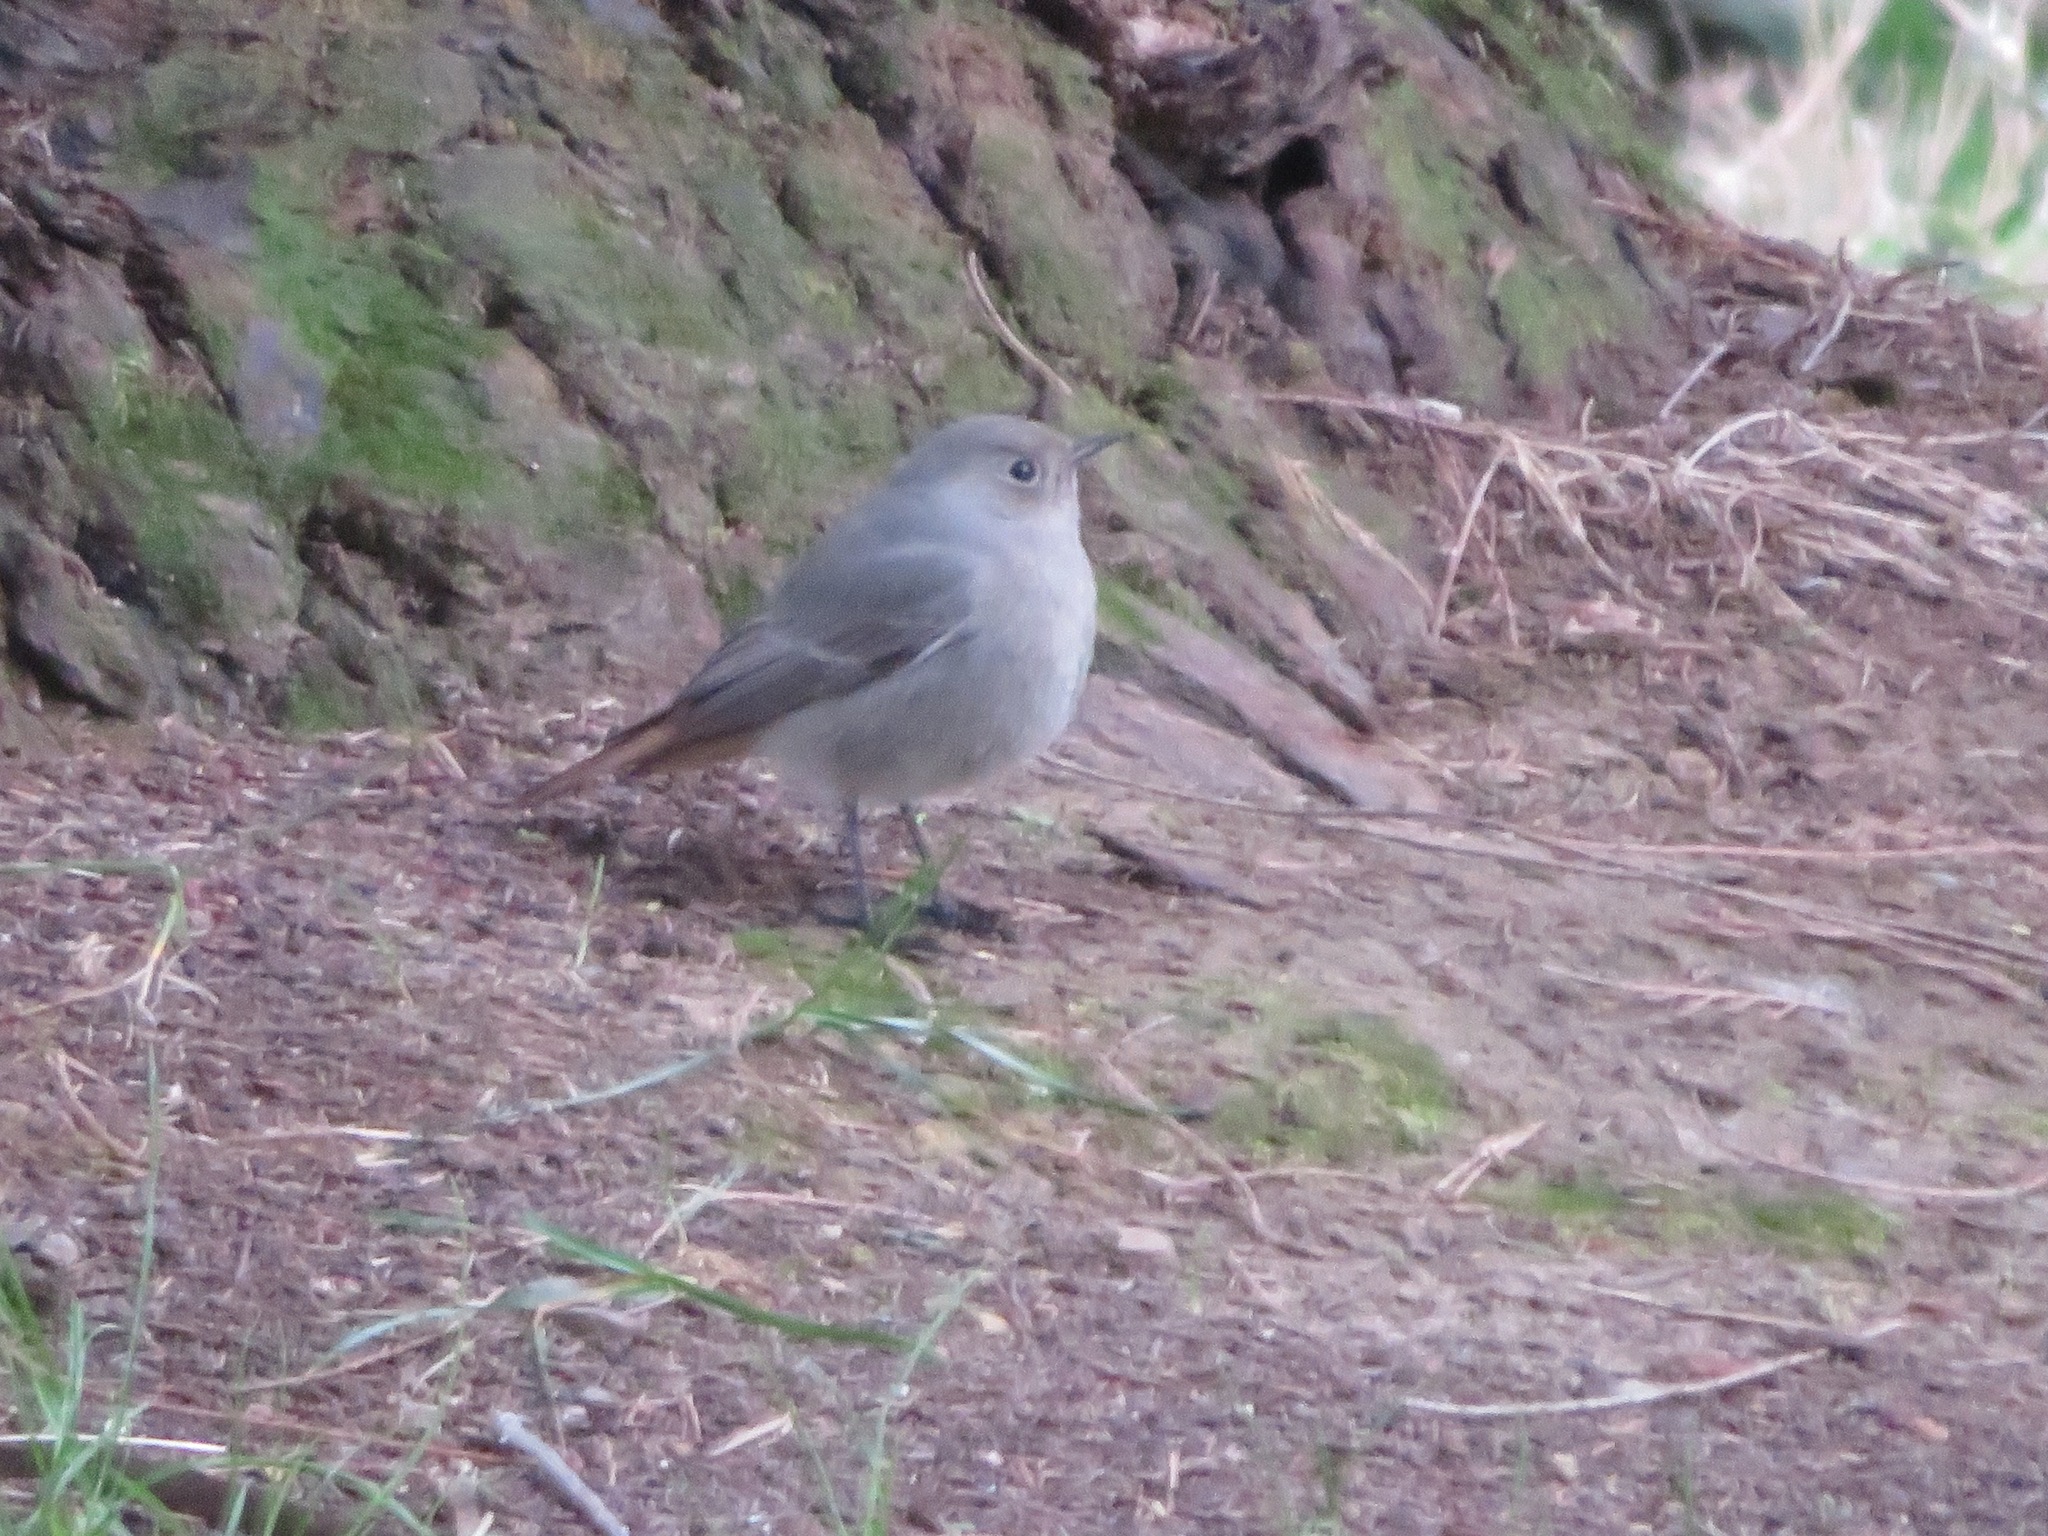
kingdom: Animalia
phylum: Chordata
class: Aves
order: Passeriformes
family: Muscicapidae
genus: Phoenicurus
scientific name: Phoenicurus ochruros
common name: Black redstart
